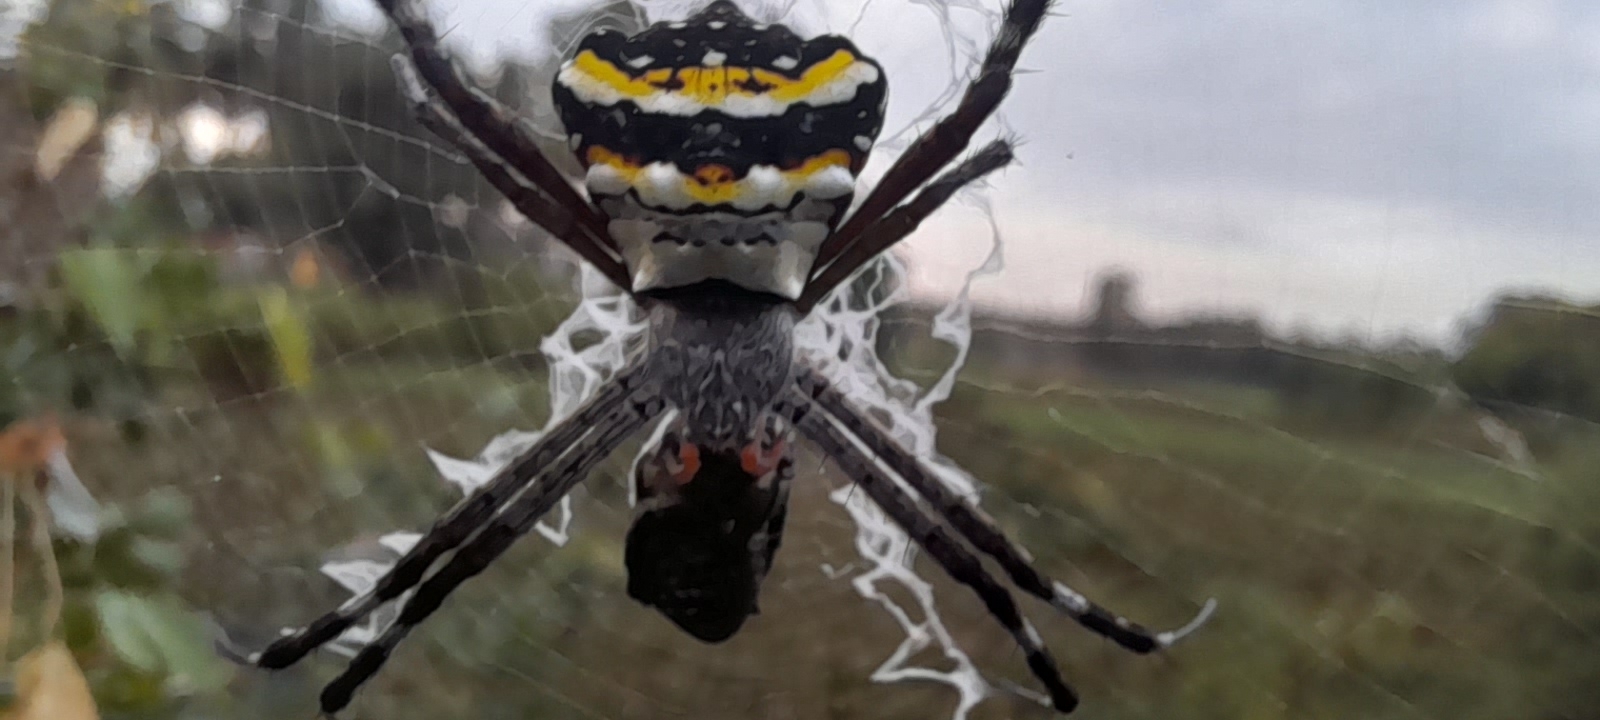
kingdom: Animalia
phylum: Arthropoda
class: Arachnida
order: Araneae
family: Araneidae
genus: Argiope
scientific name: Argiope anasuja
